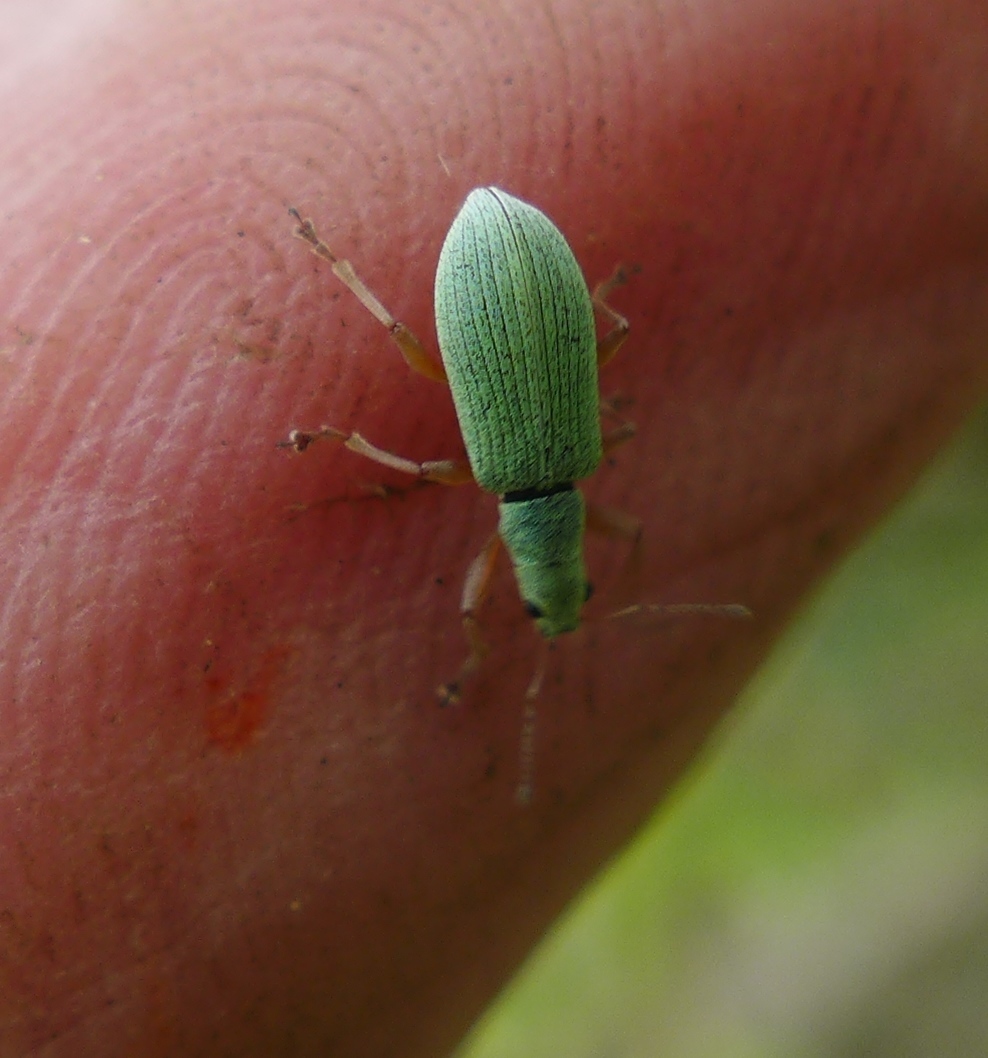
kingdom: Animalia
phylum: Arthropoda
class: Insecta
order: Coleoptera
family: Curculionidae
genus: Polydrusus
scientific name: Polydrusus impressifrons
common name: Weevil
